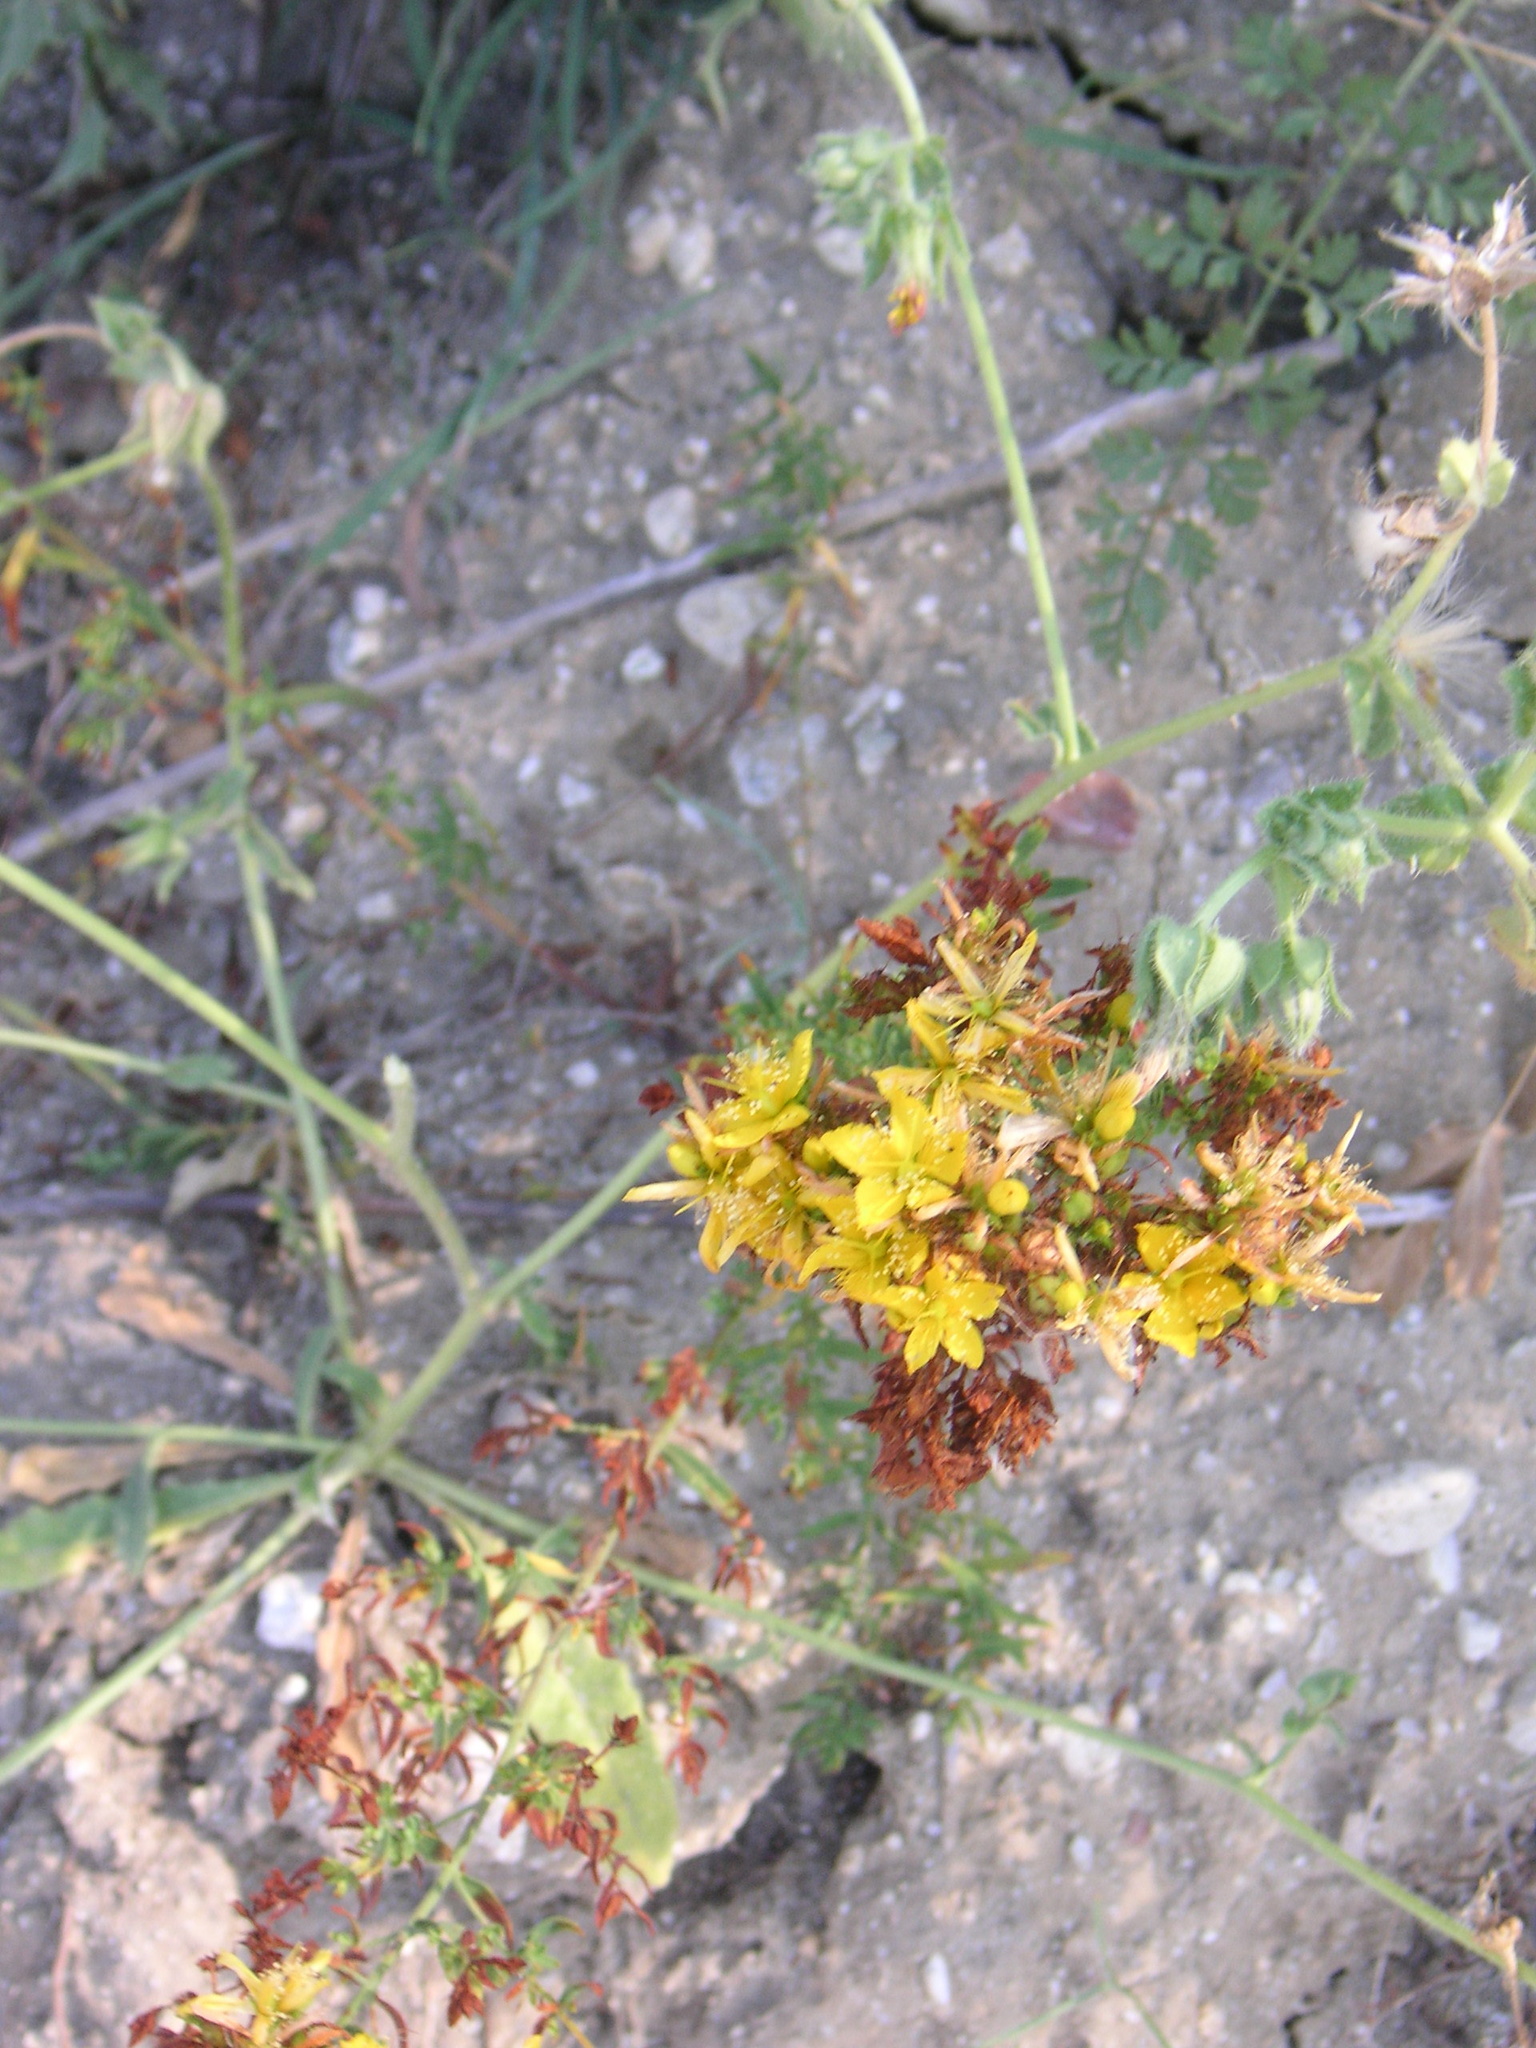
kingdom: Plantae
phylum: Tracheophyta
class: Magnoliopsida
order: Malpighiales
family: Hypericaceae
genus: Hypericum
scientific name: Hypericum perforatum
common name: Common st. johnswort
